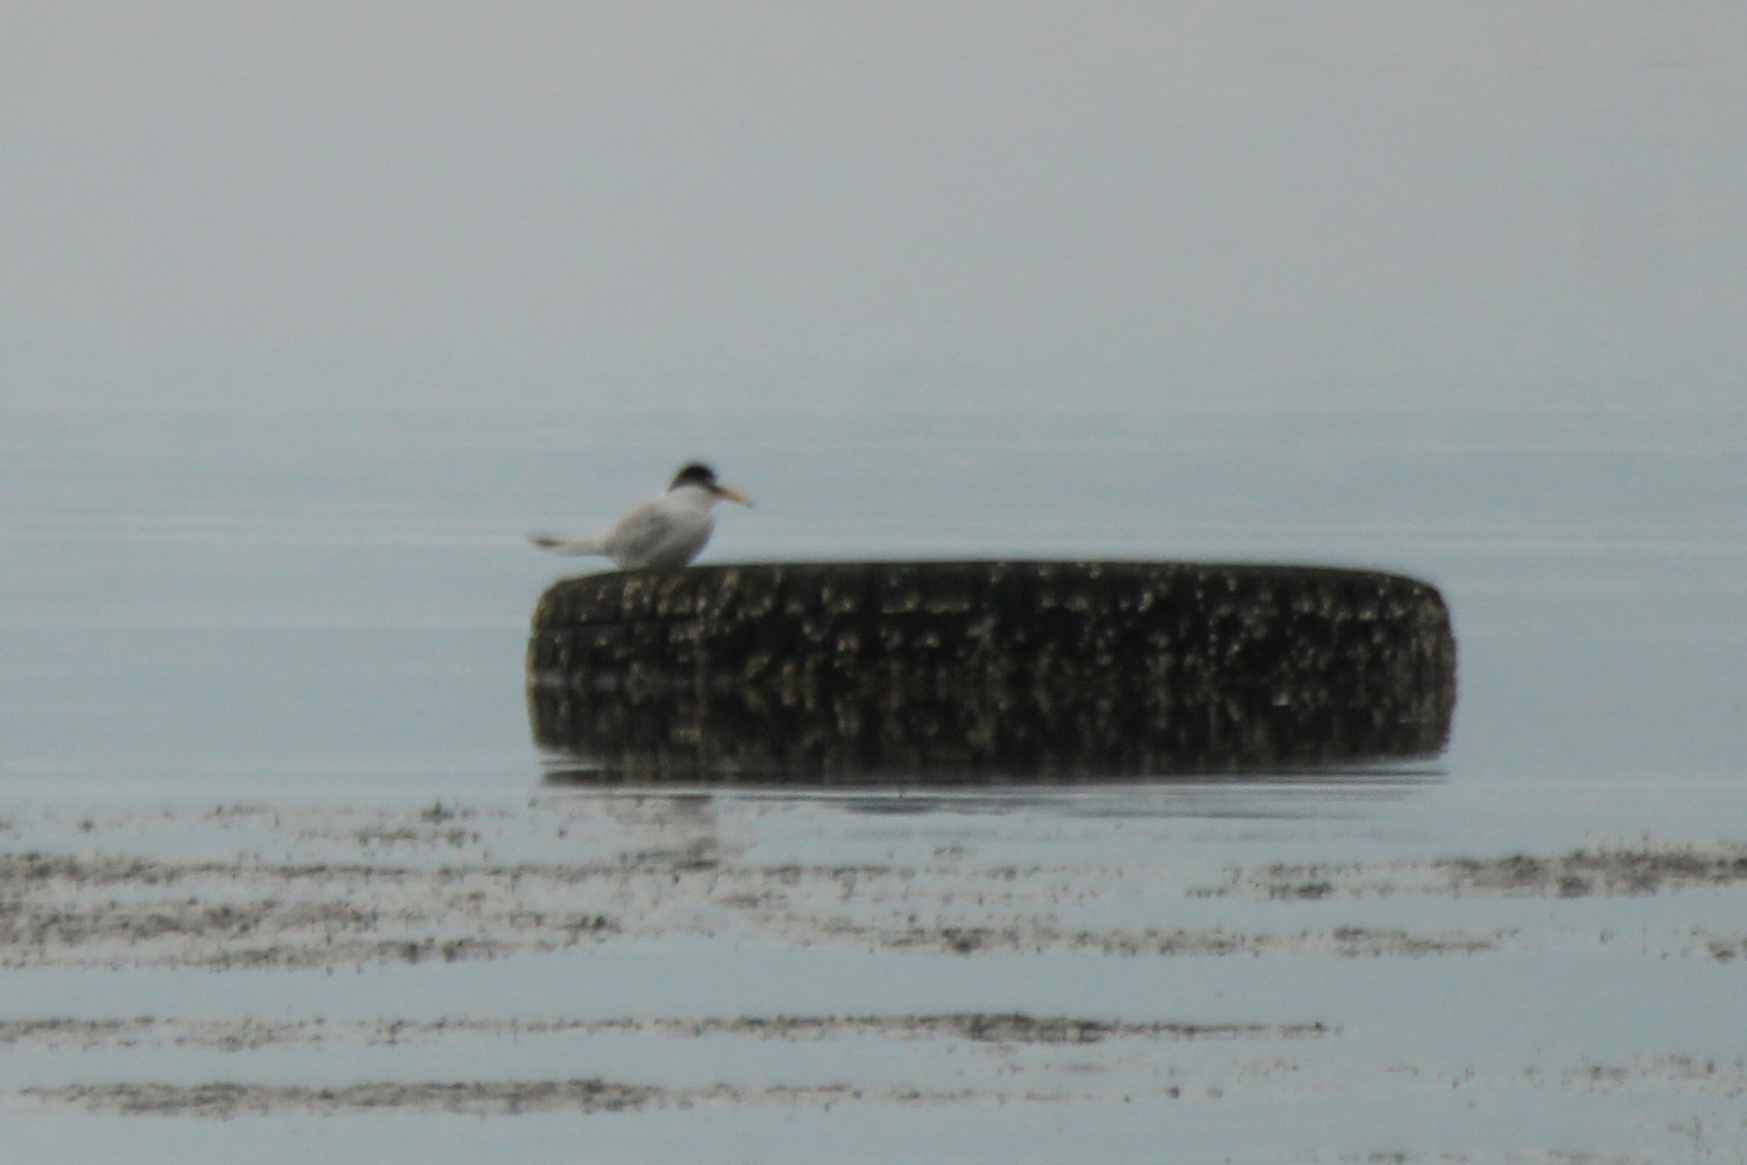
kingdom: Animalia
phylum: Chordata
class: Aves
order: Charadriiformes
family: Laridae
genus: Sternula
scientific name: Sternula albifrons
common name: Little tern
